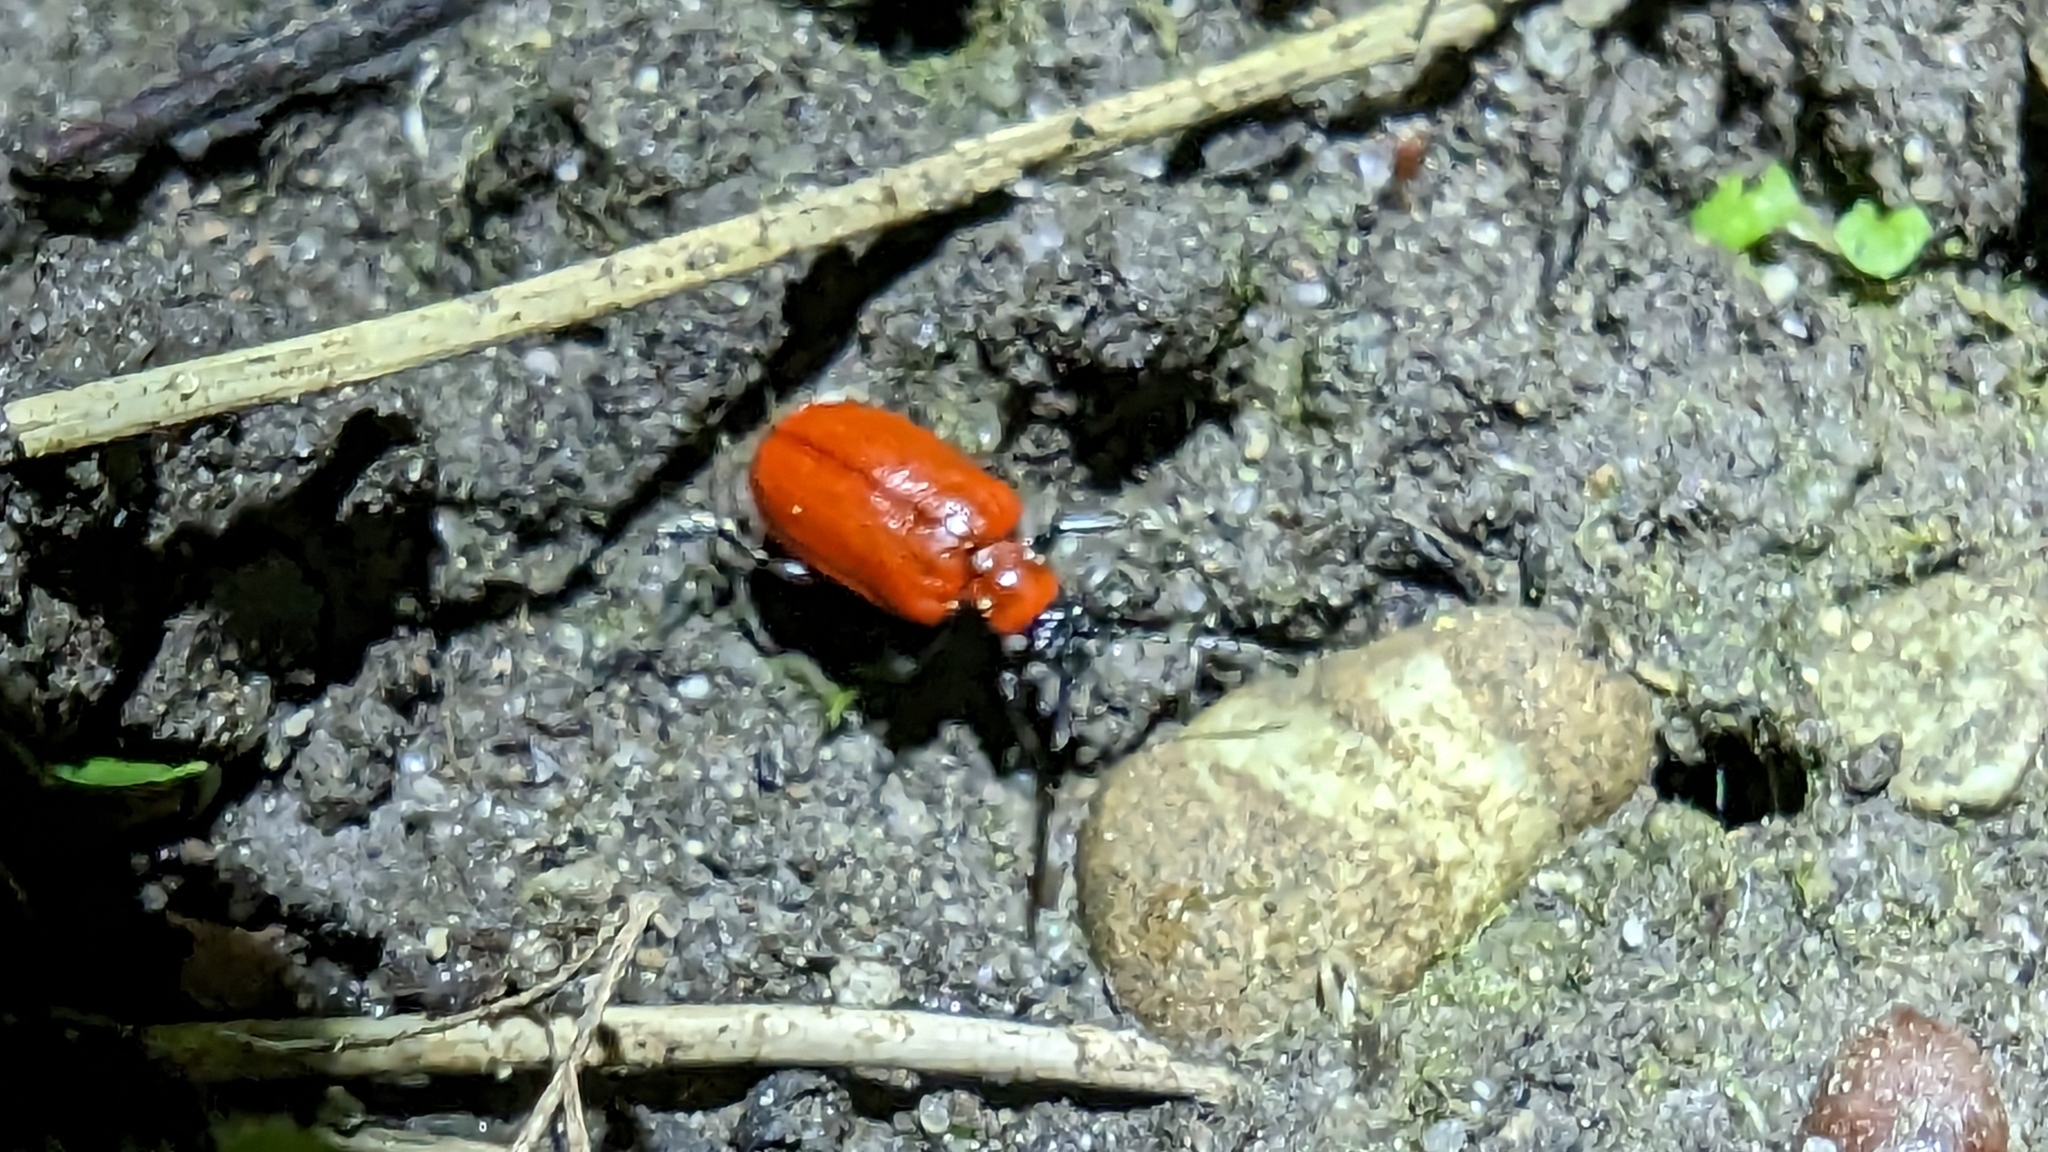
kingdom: Animalia
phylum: Arthropoda
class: Insecta
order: Coleoptera
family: Chrysomelidae
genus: Lilioceris
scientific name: Lilioceris lilii
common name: Lily beetle
